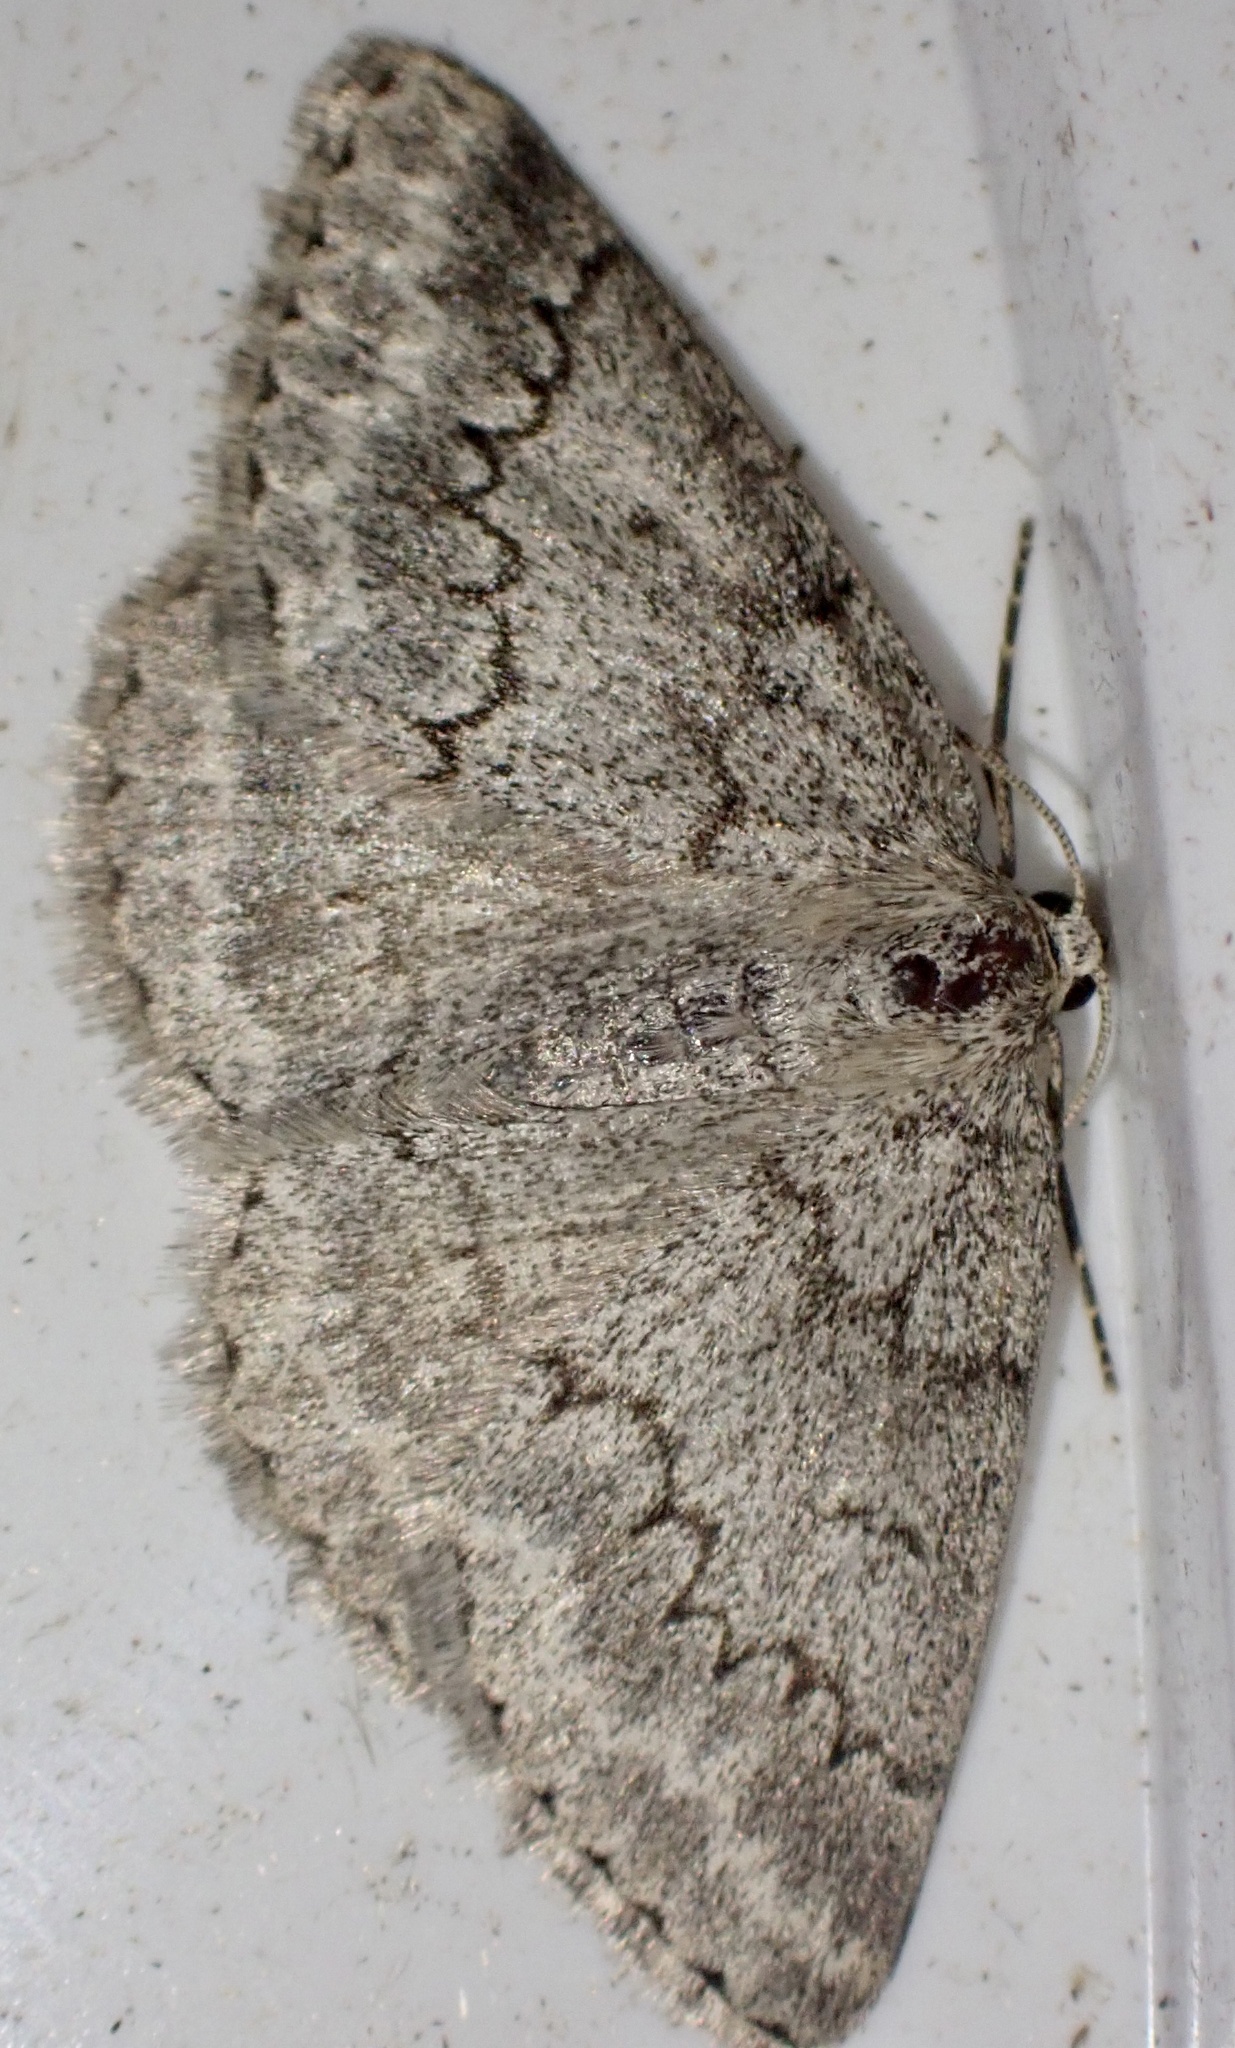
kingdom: Animalia
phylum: Arthropoda
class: Insecta
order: Lepidoptera
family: Geometridae
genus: Pseudoterpna
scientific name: Pseudoterpna coronillaria
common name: Jersey emerald
